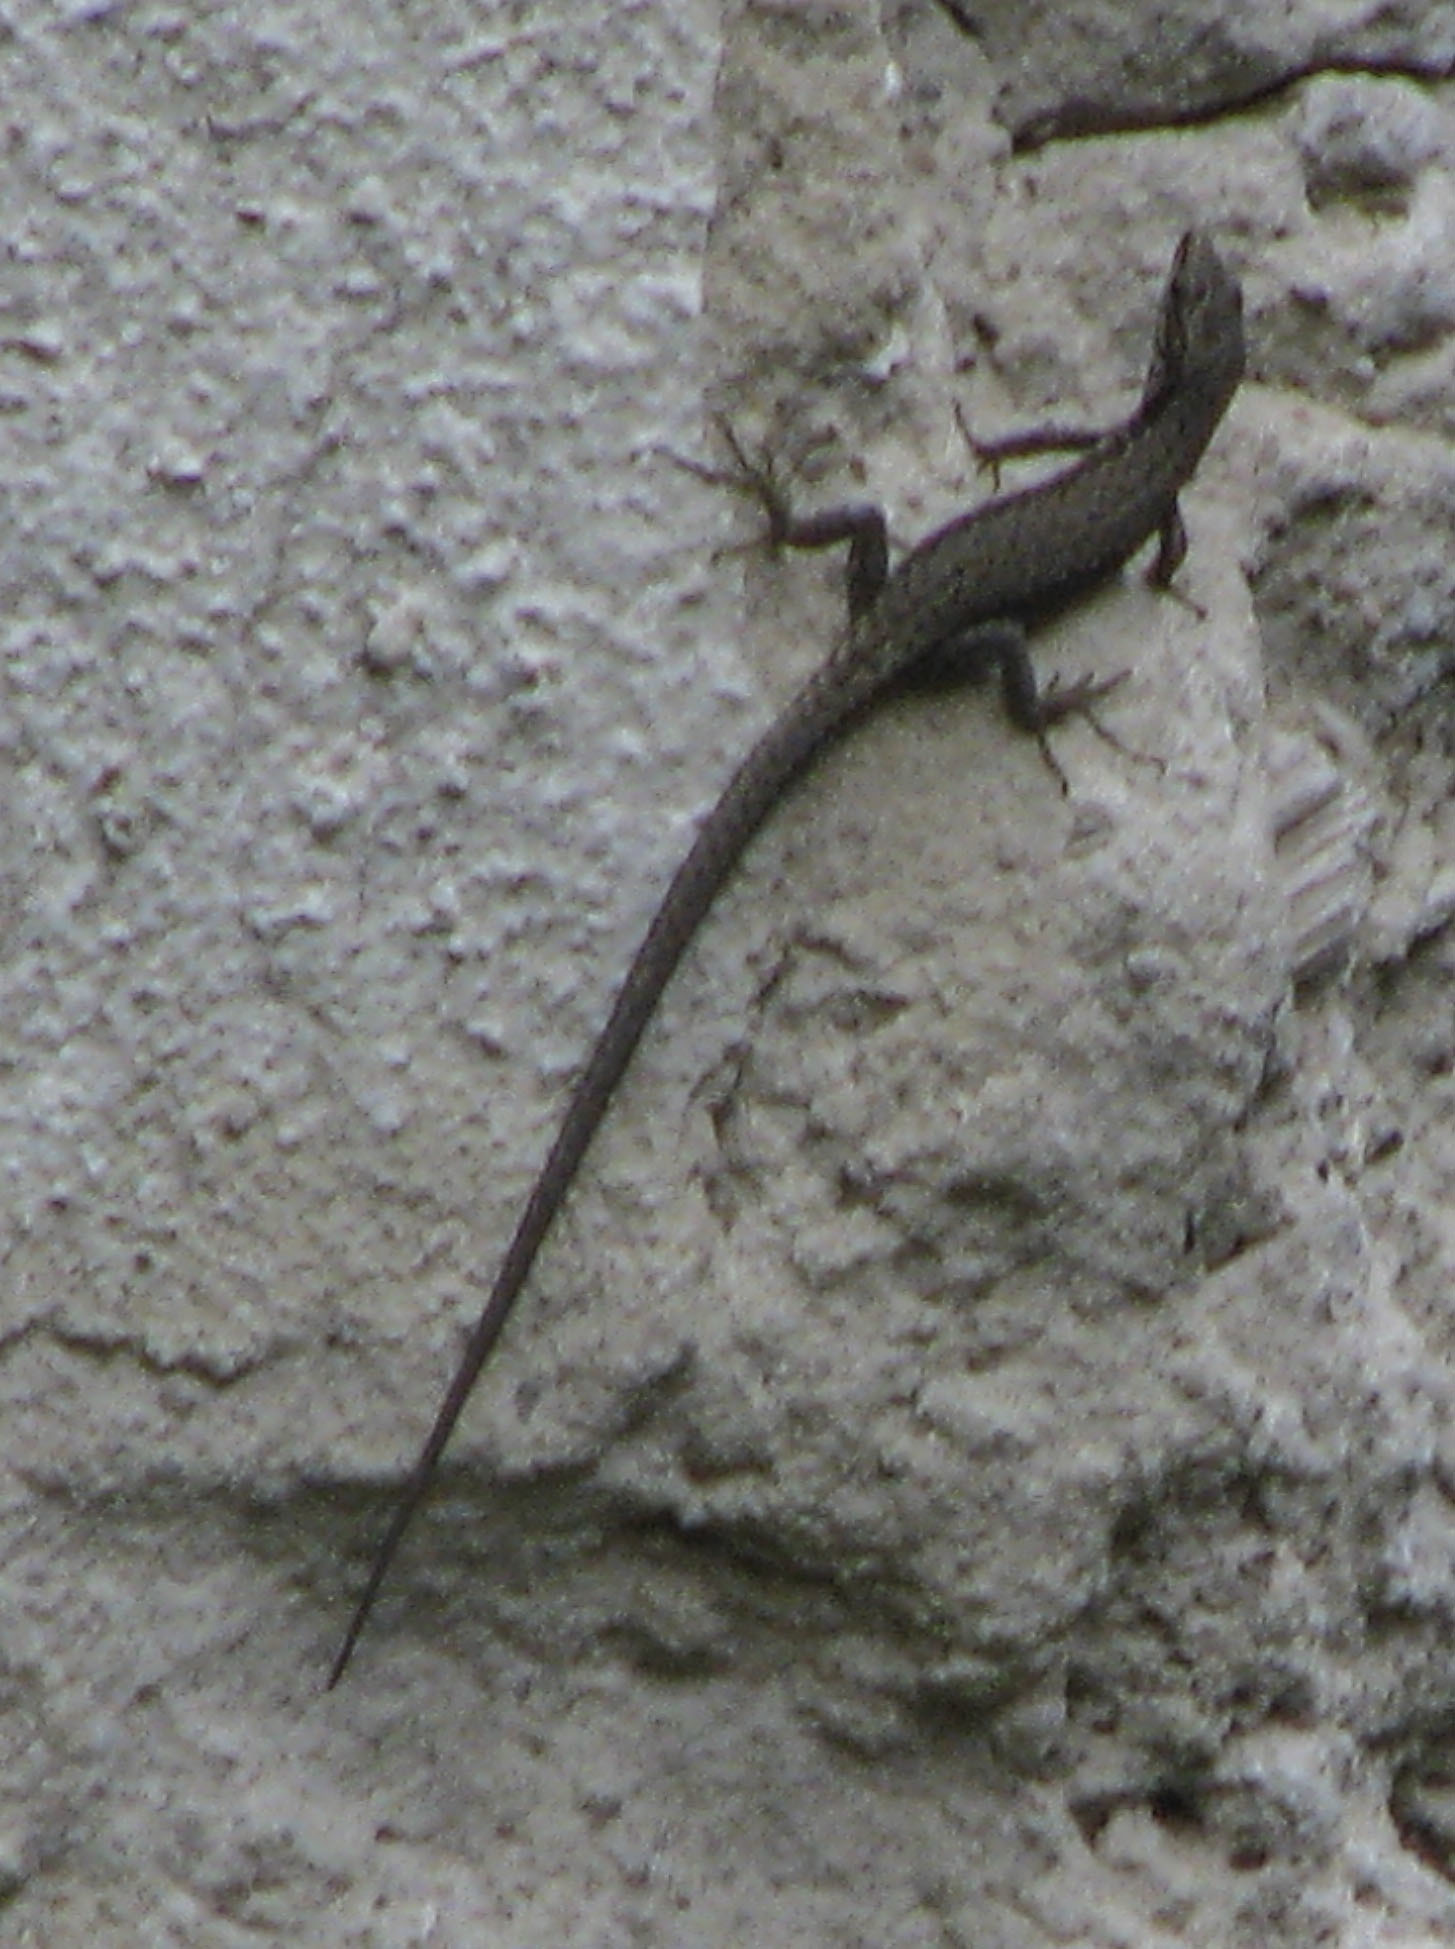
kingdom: Animalia
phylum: Chordata
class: Squamata
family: Lacertidae
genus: Darevskia
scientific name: Darevskia brauneri
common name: Brauner's rock lizard
